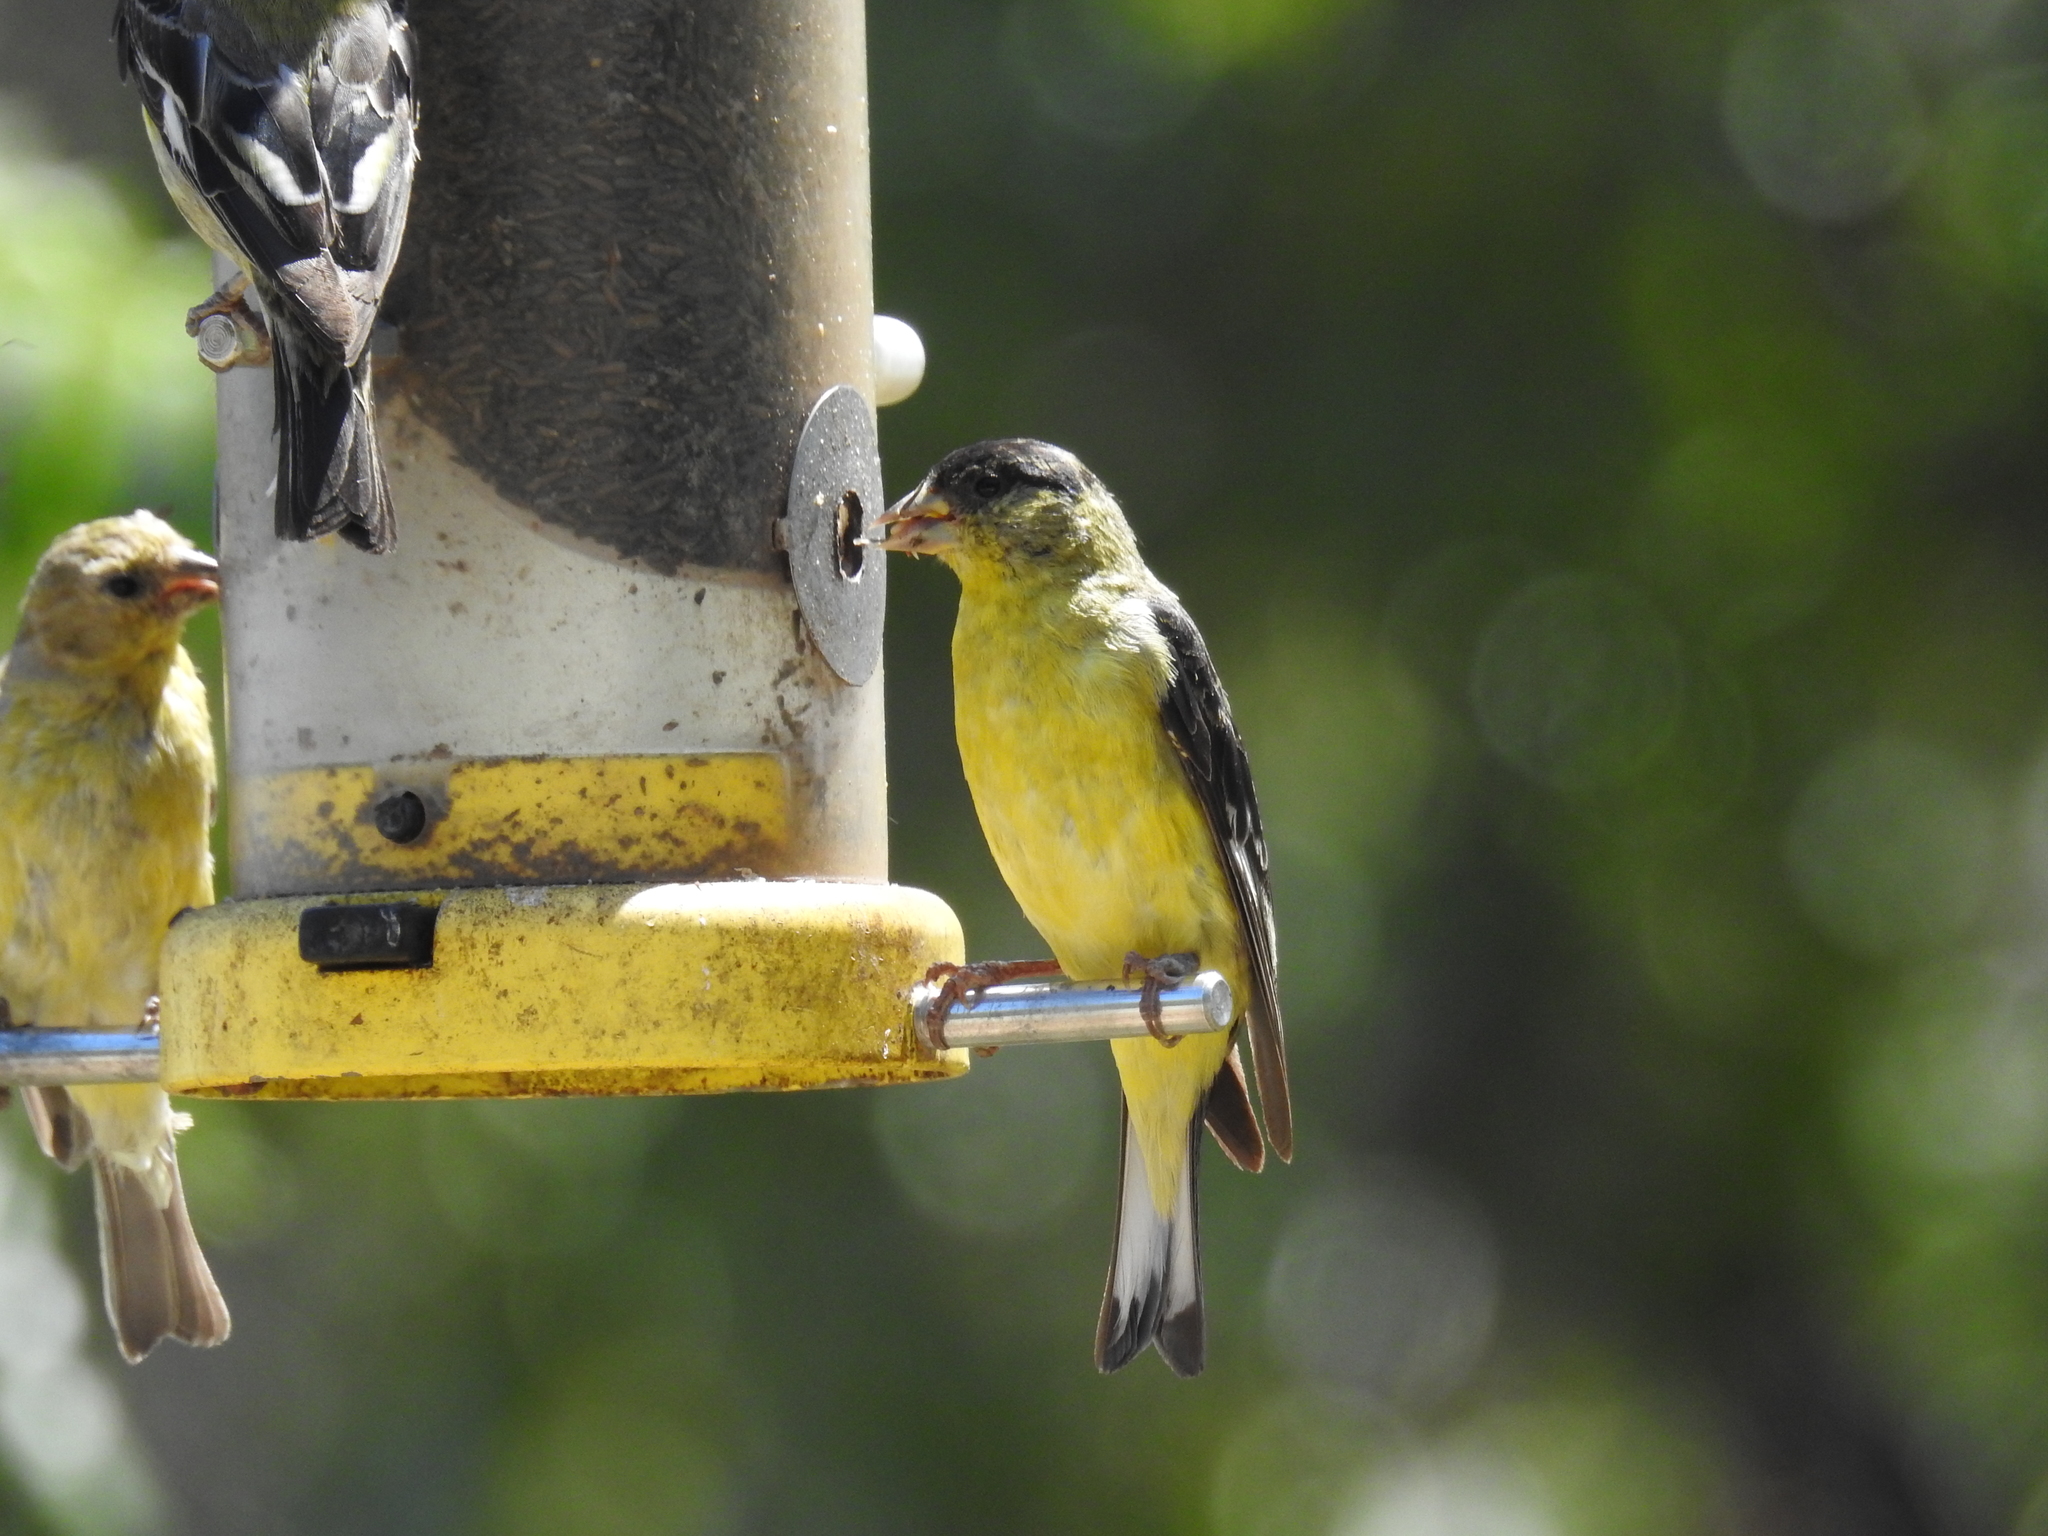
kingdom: Animalia
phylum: Chordata
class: Aves
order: Passeriformes
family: Fringillidae
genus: Spinus
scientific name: Spinus psaltria
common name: Lesser goldfinch
